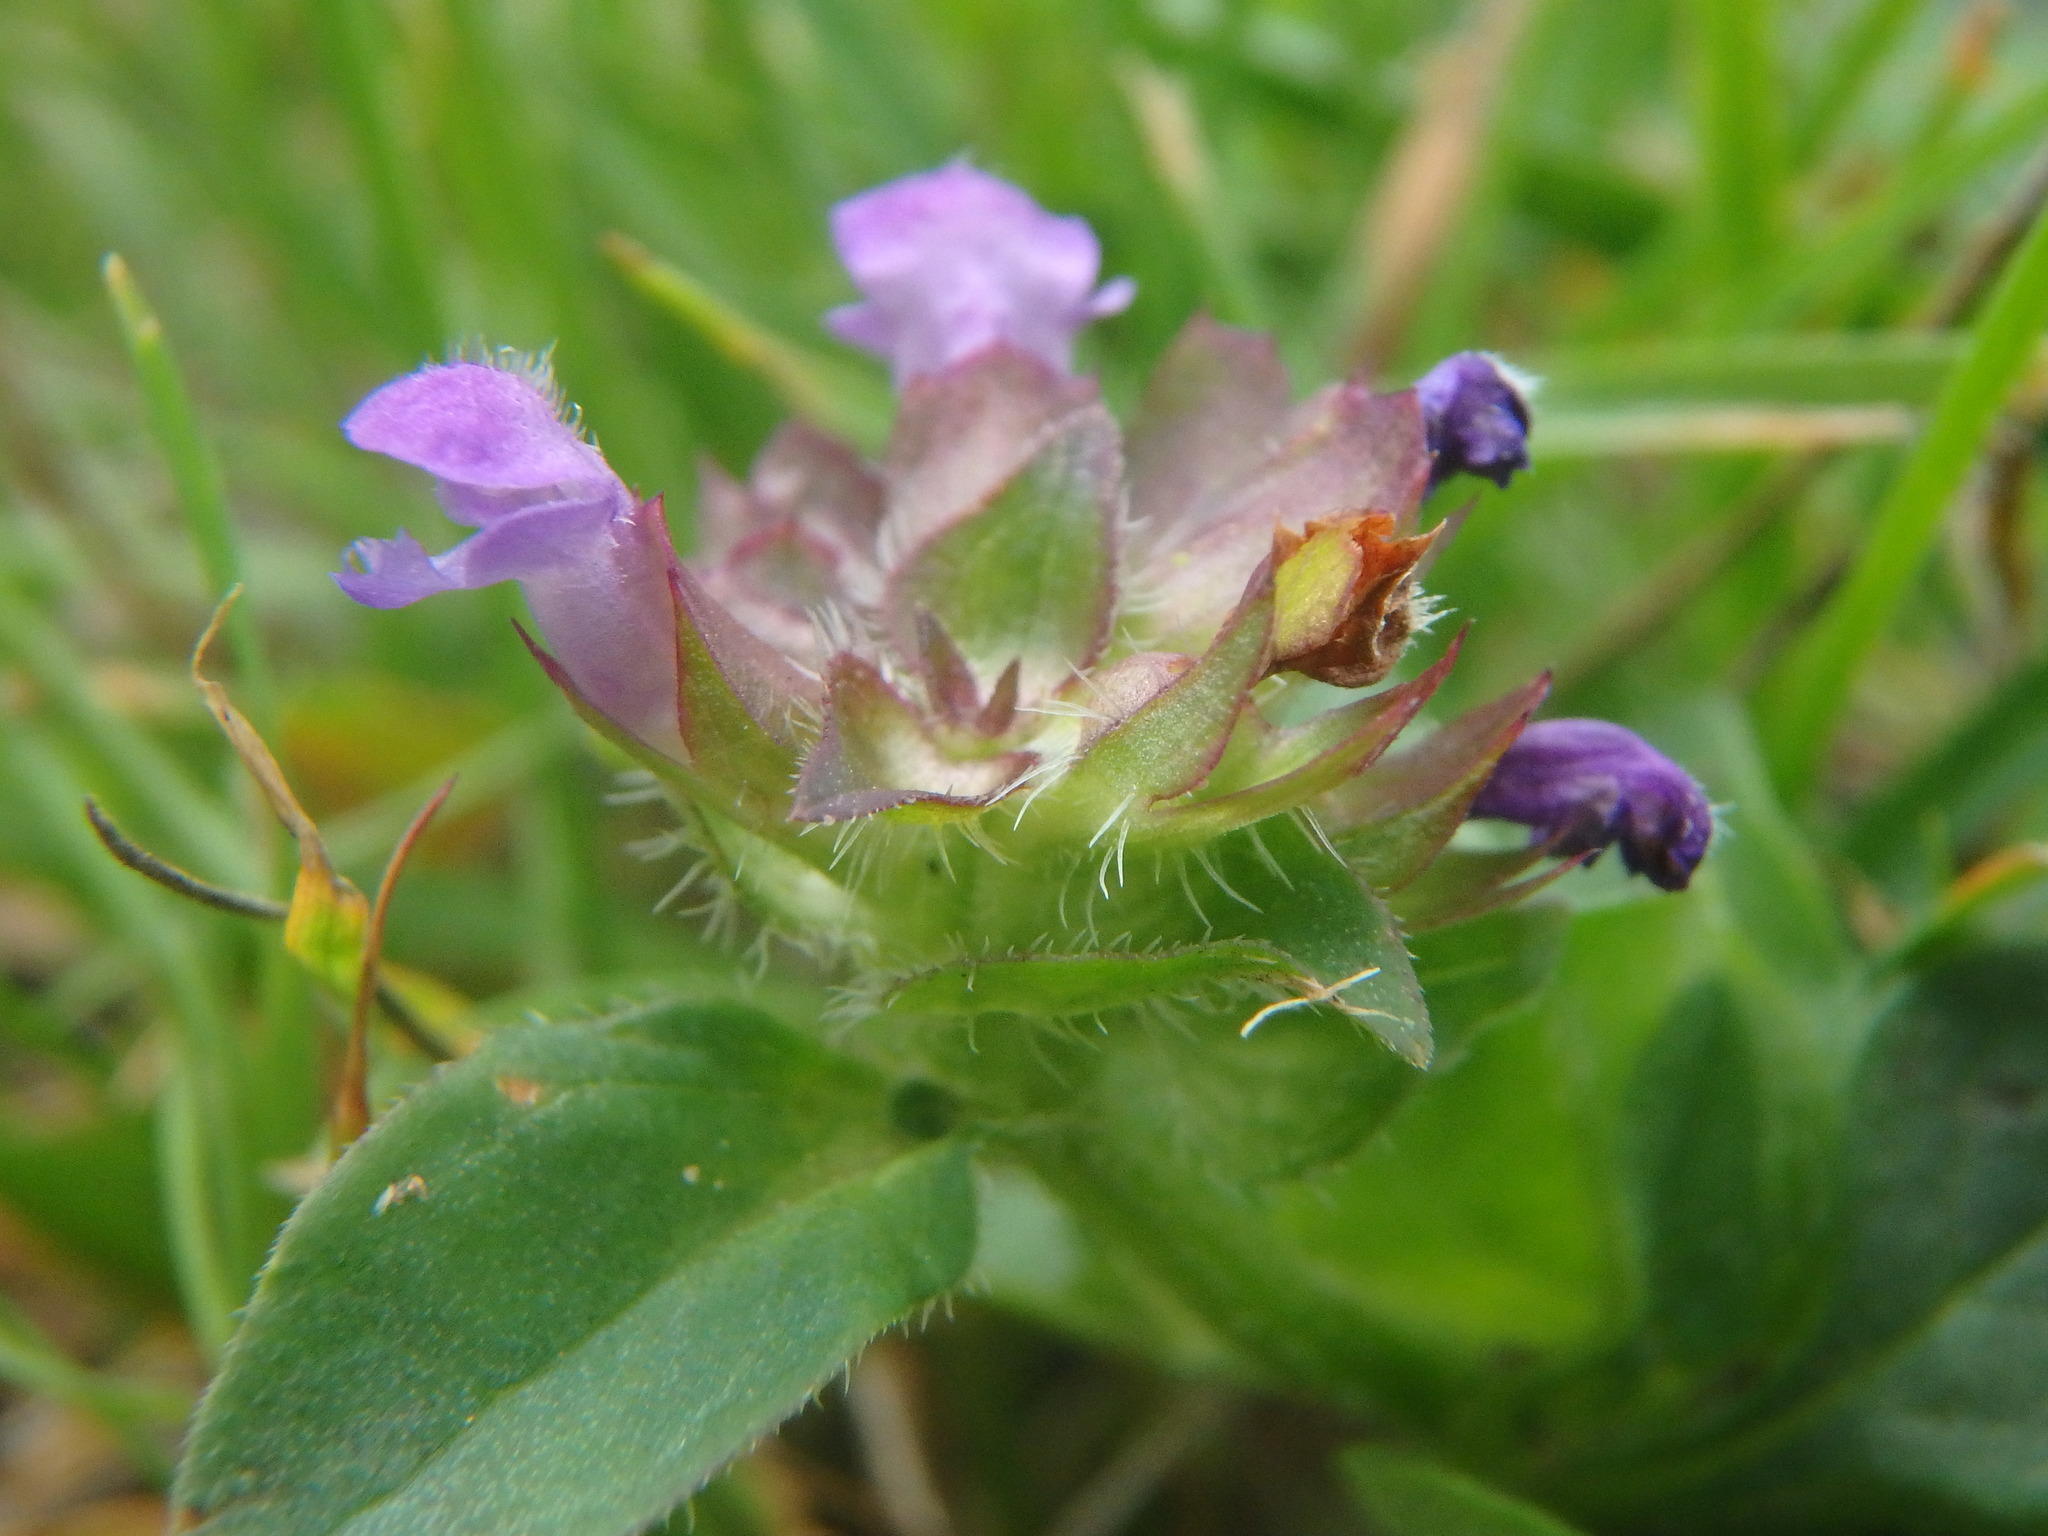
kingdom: Plantae
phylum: Tracheophyta
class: Magnoliopsida
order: Lamiales
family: Lamiaceae
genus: Prunella
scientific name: Prunella vulgaris
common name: Heal-all
